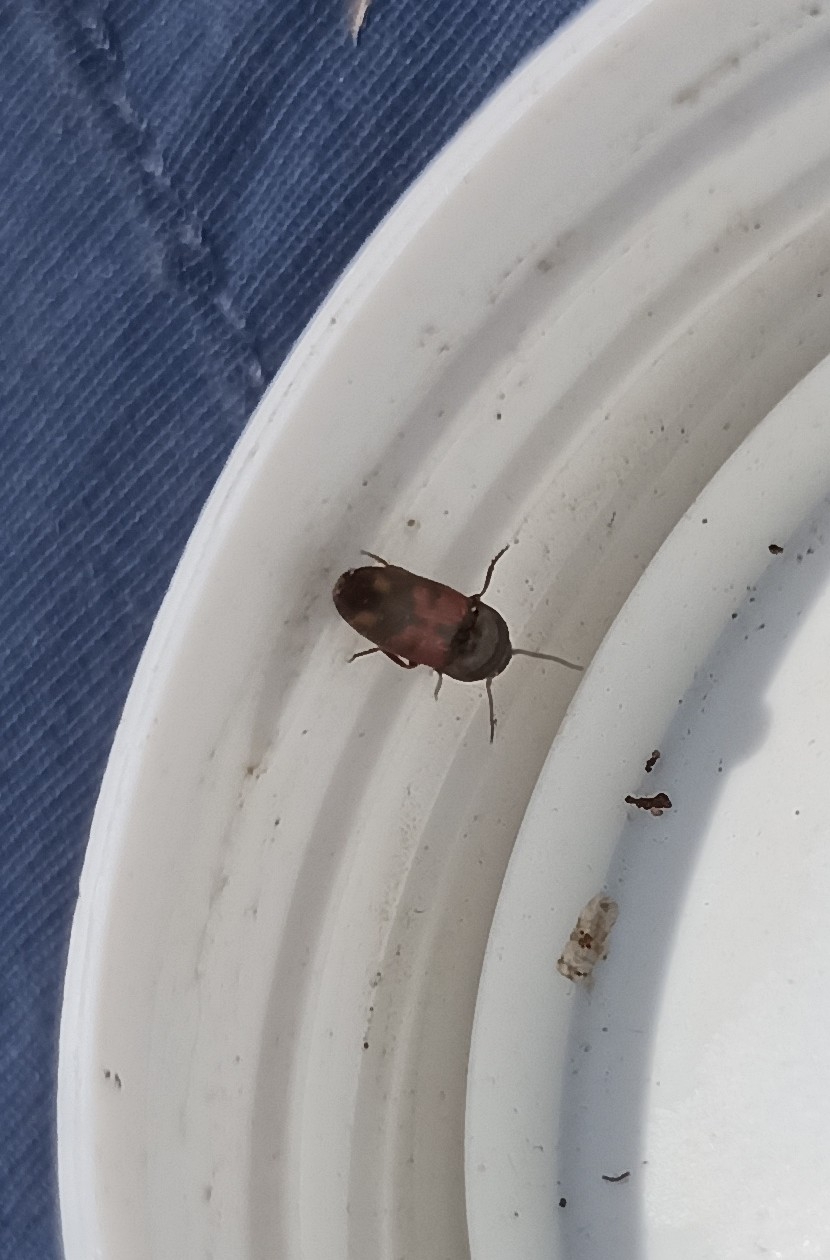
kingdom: Animalia
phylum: Arthropoda
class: Insecta
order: Coleoptera
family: Elateridae
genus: Drasterius
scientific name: Drasterius bimaculatus
